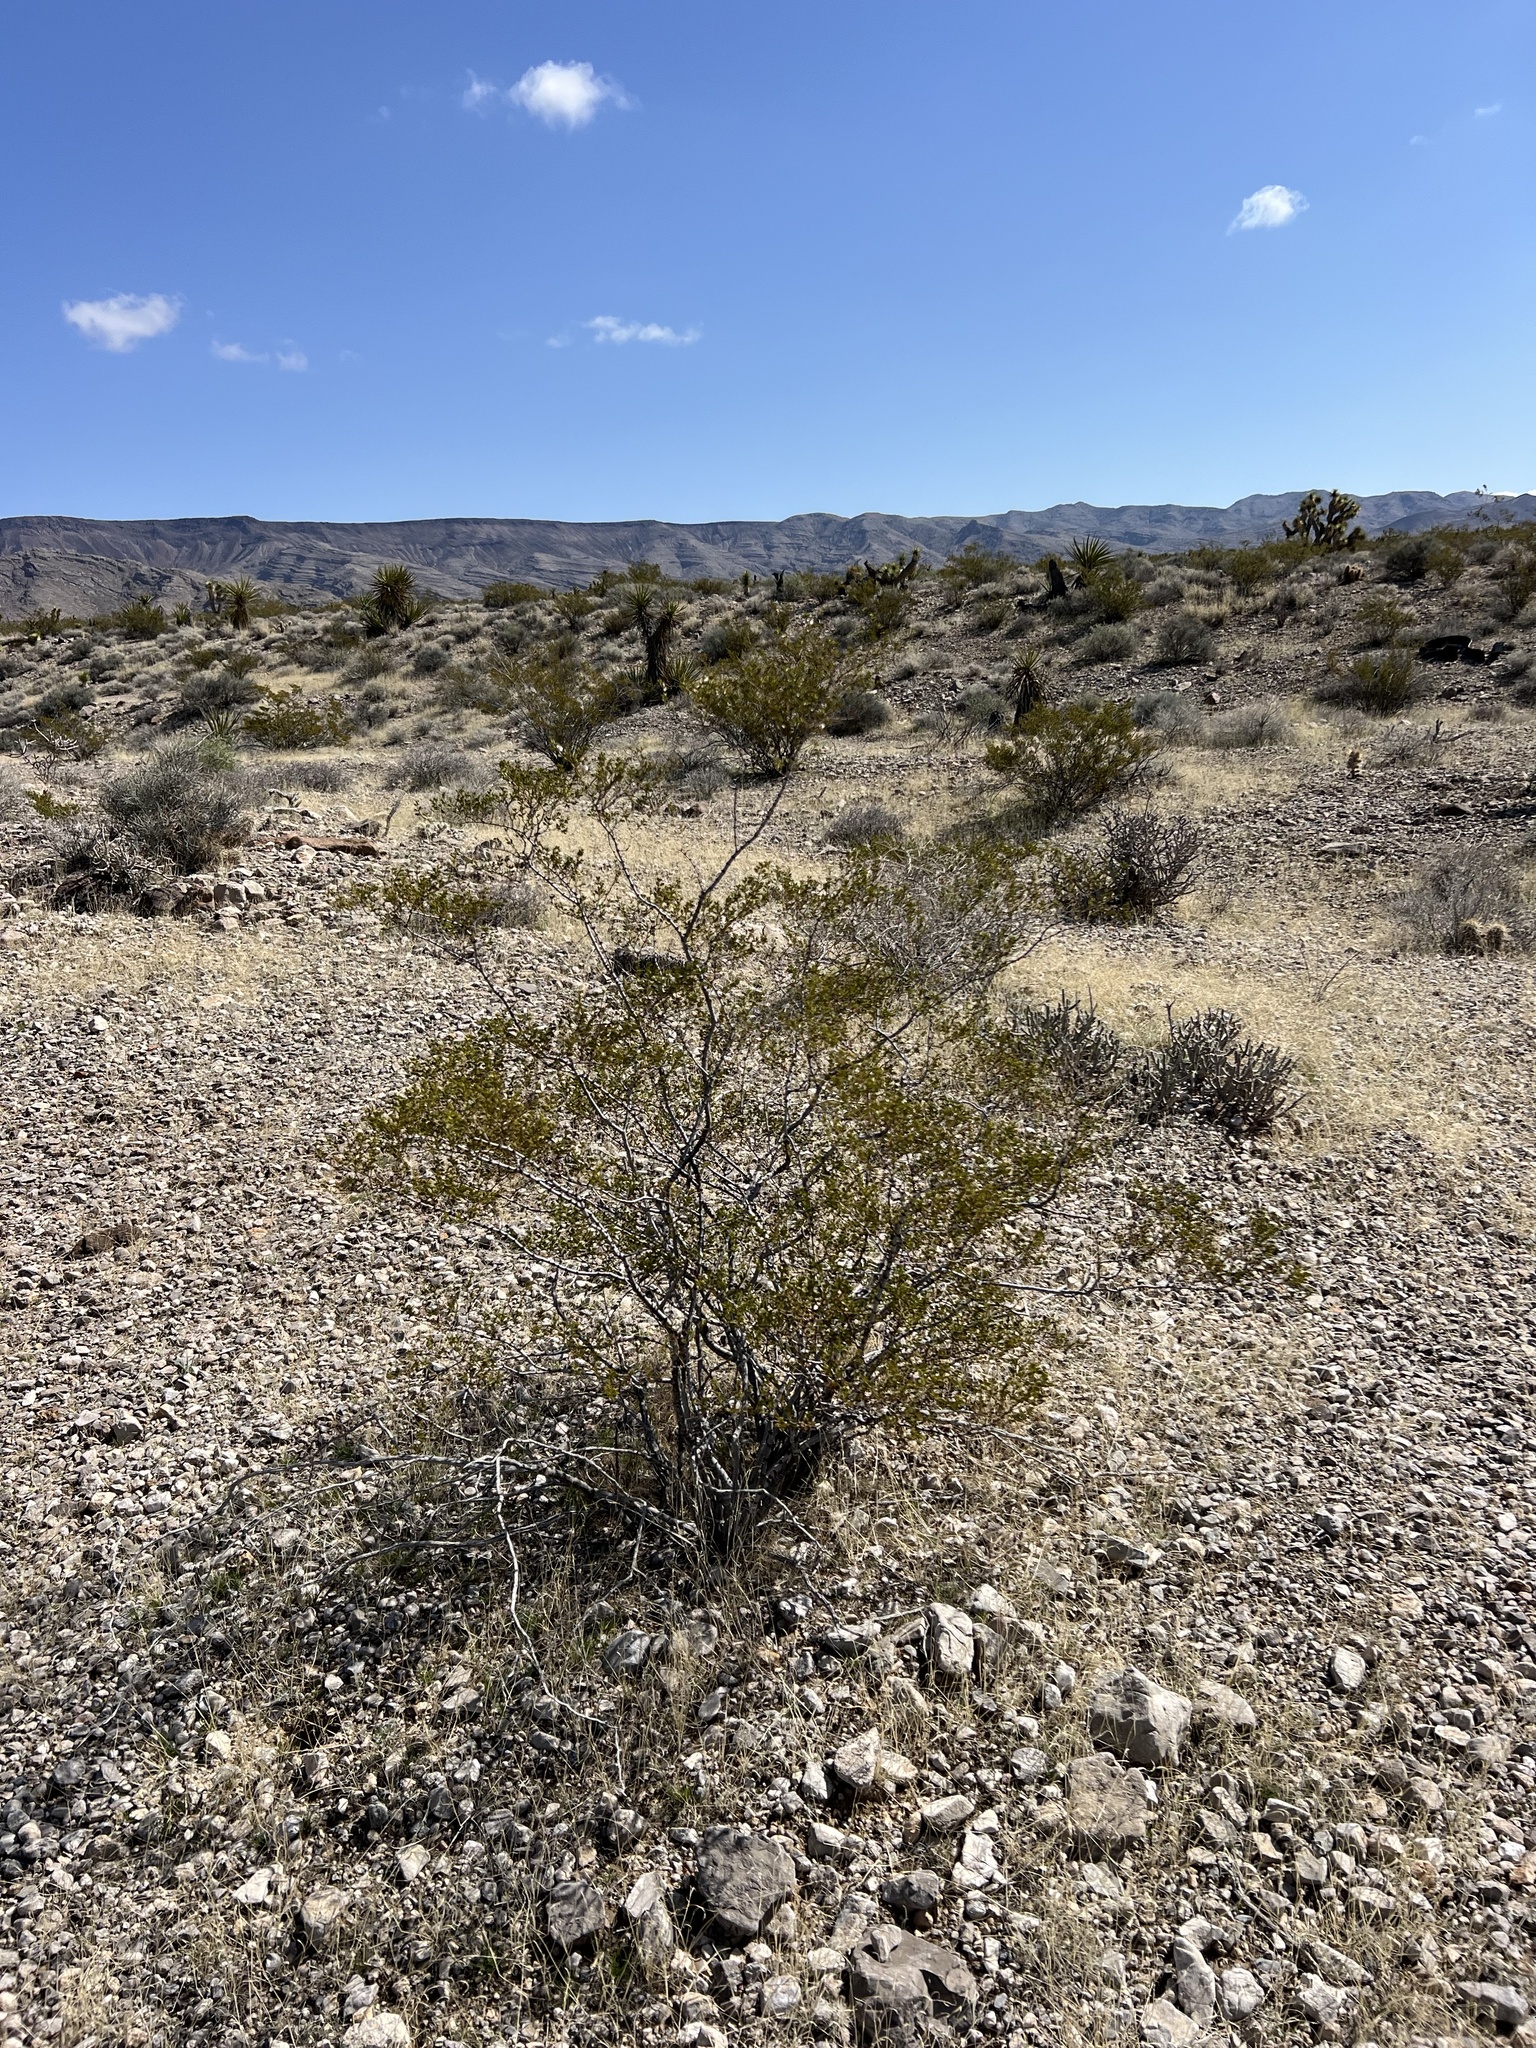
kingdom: Plantae
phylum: Tracheophyta
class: Magnoliopsida
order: Zygophyllales
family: Zygophyllaceae
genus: Larrea
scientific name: Larrea tridentata
